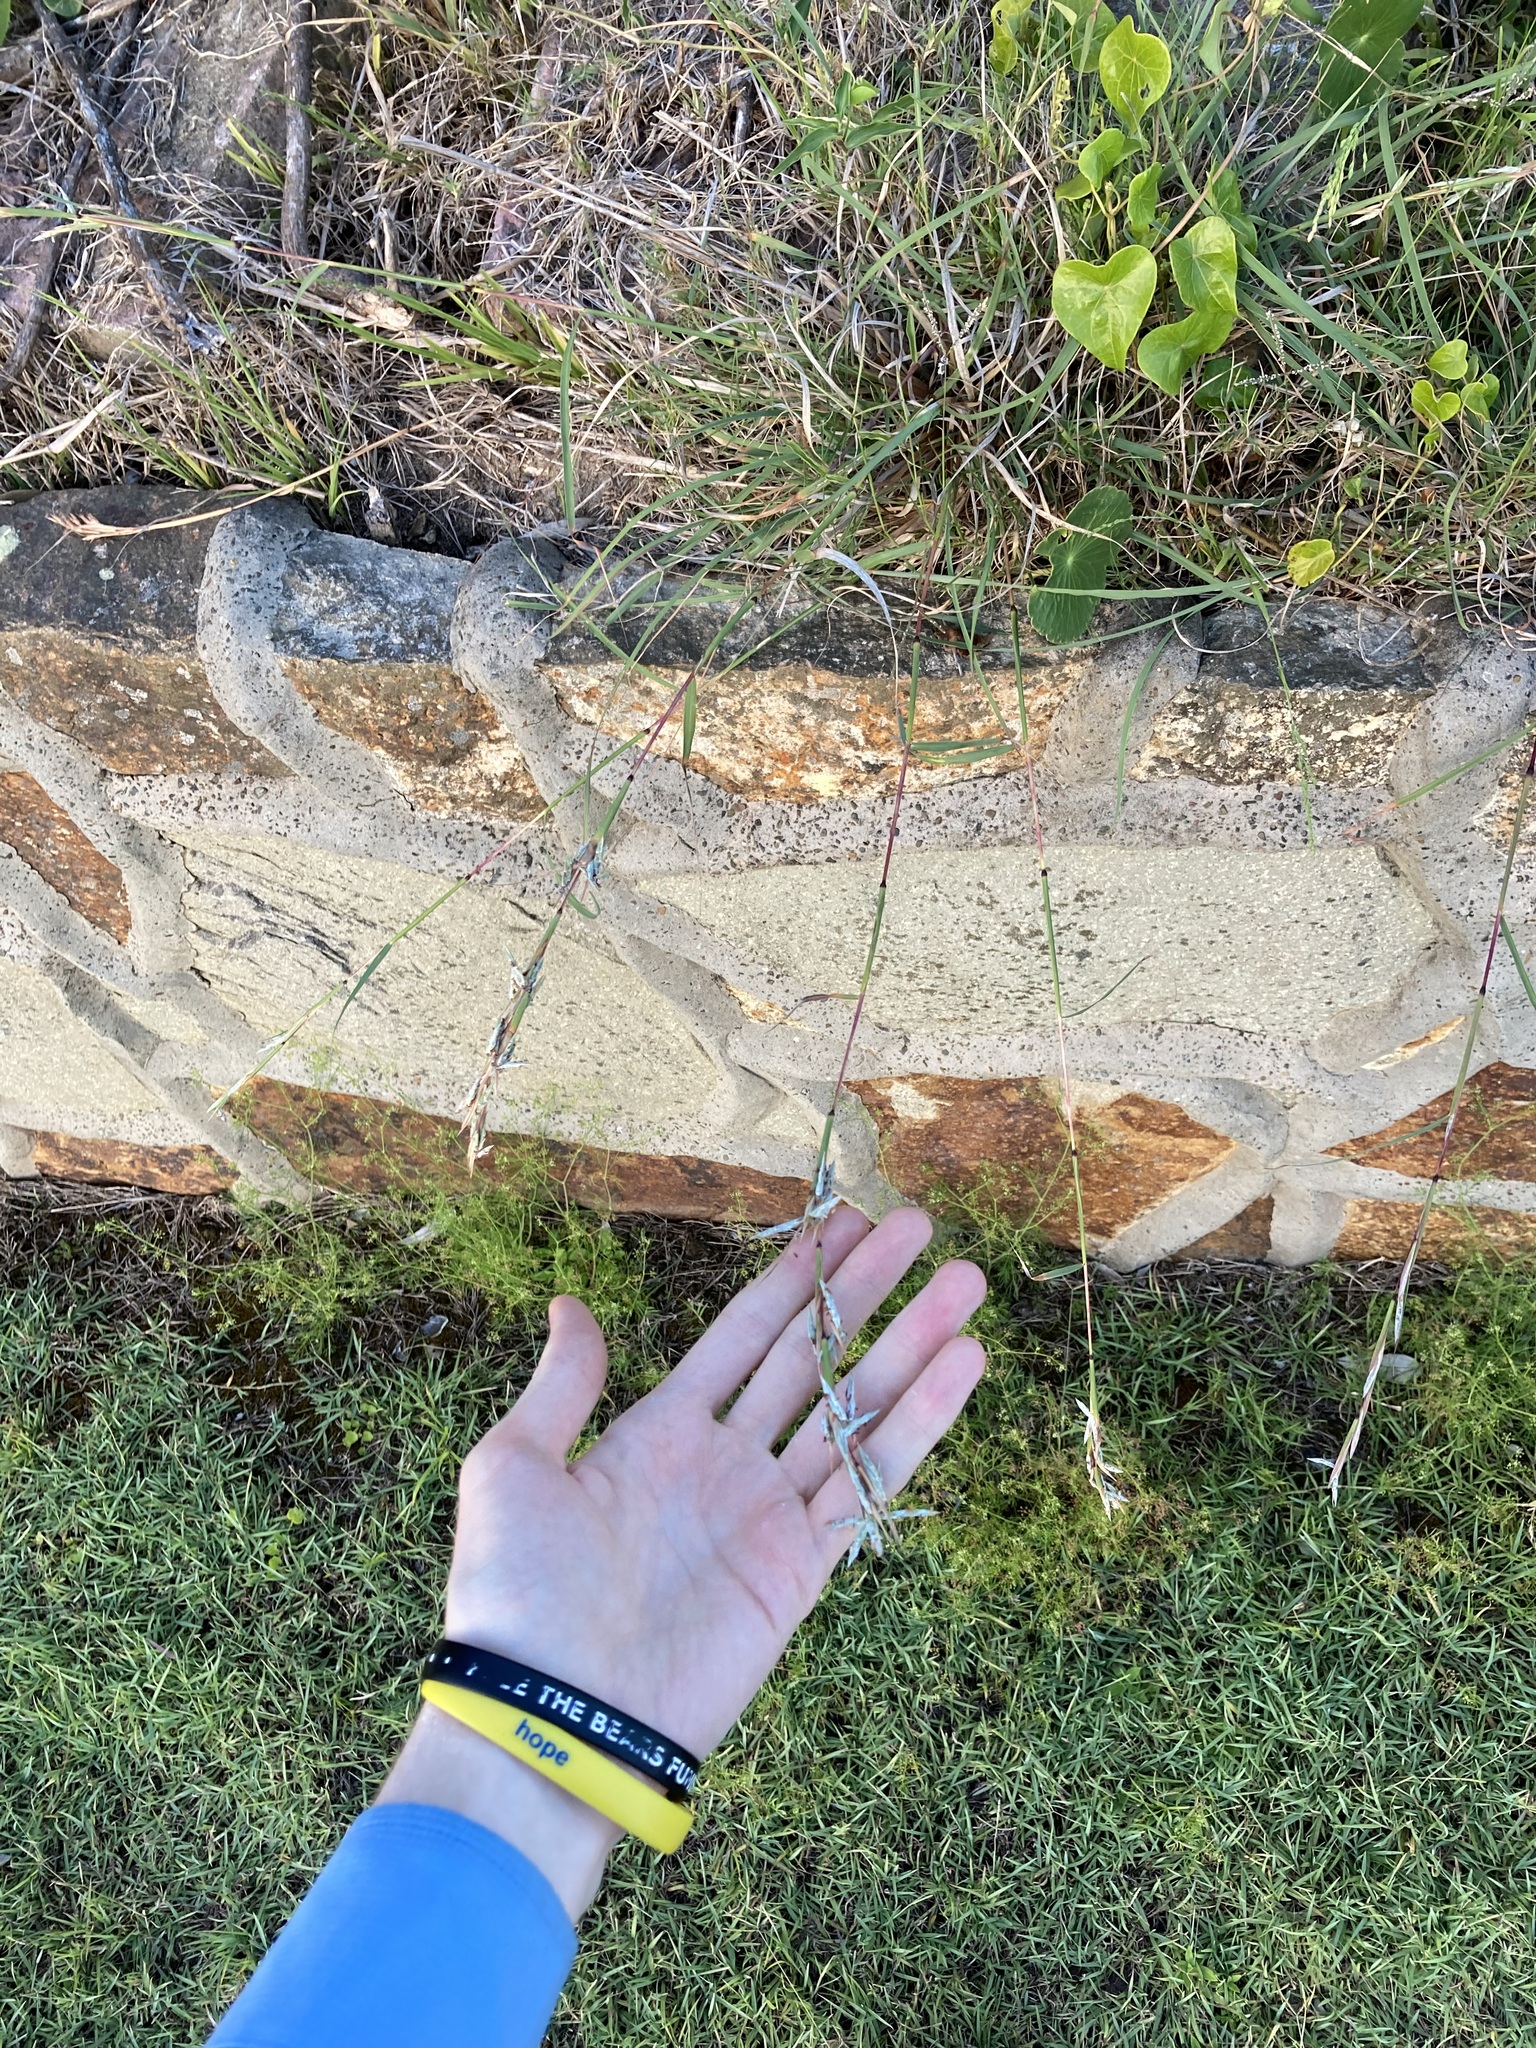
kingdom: Plantae
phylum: Tracheophyta
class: Liliopsida
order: Poales
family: Poaceae
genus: Cymbopogon
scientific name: Cymbopogon refractus
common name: Barbwire grass
